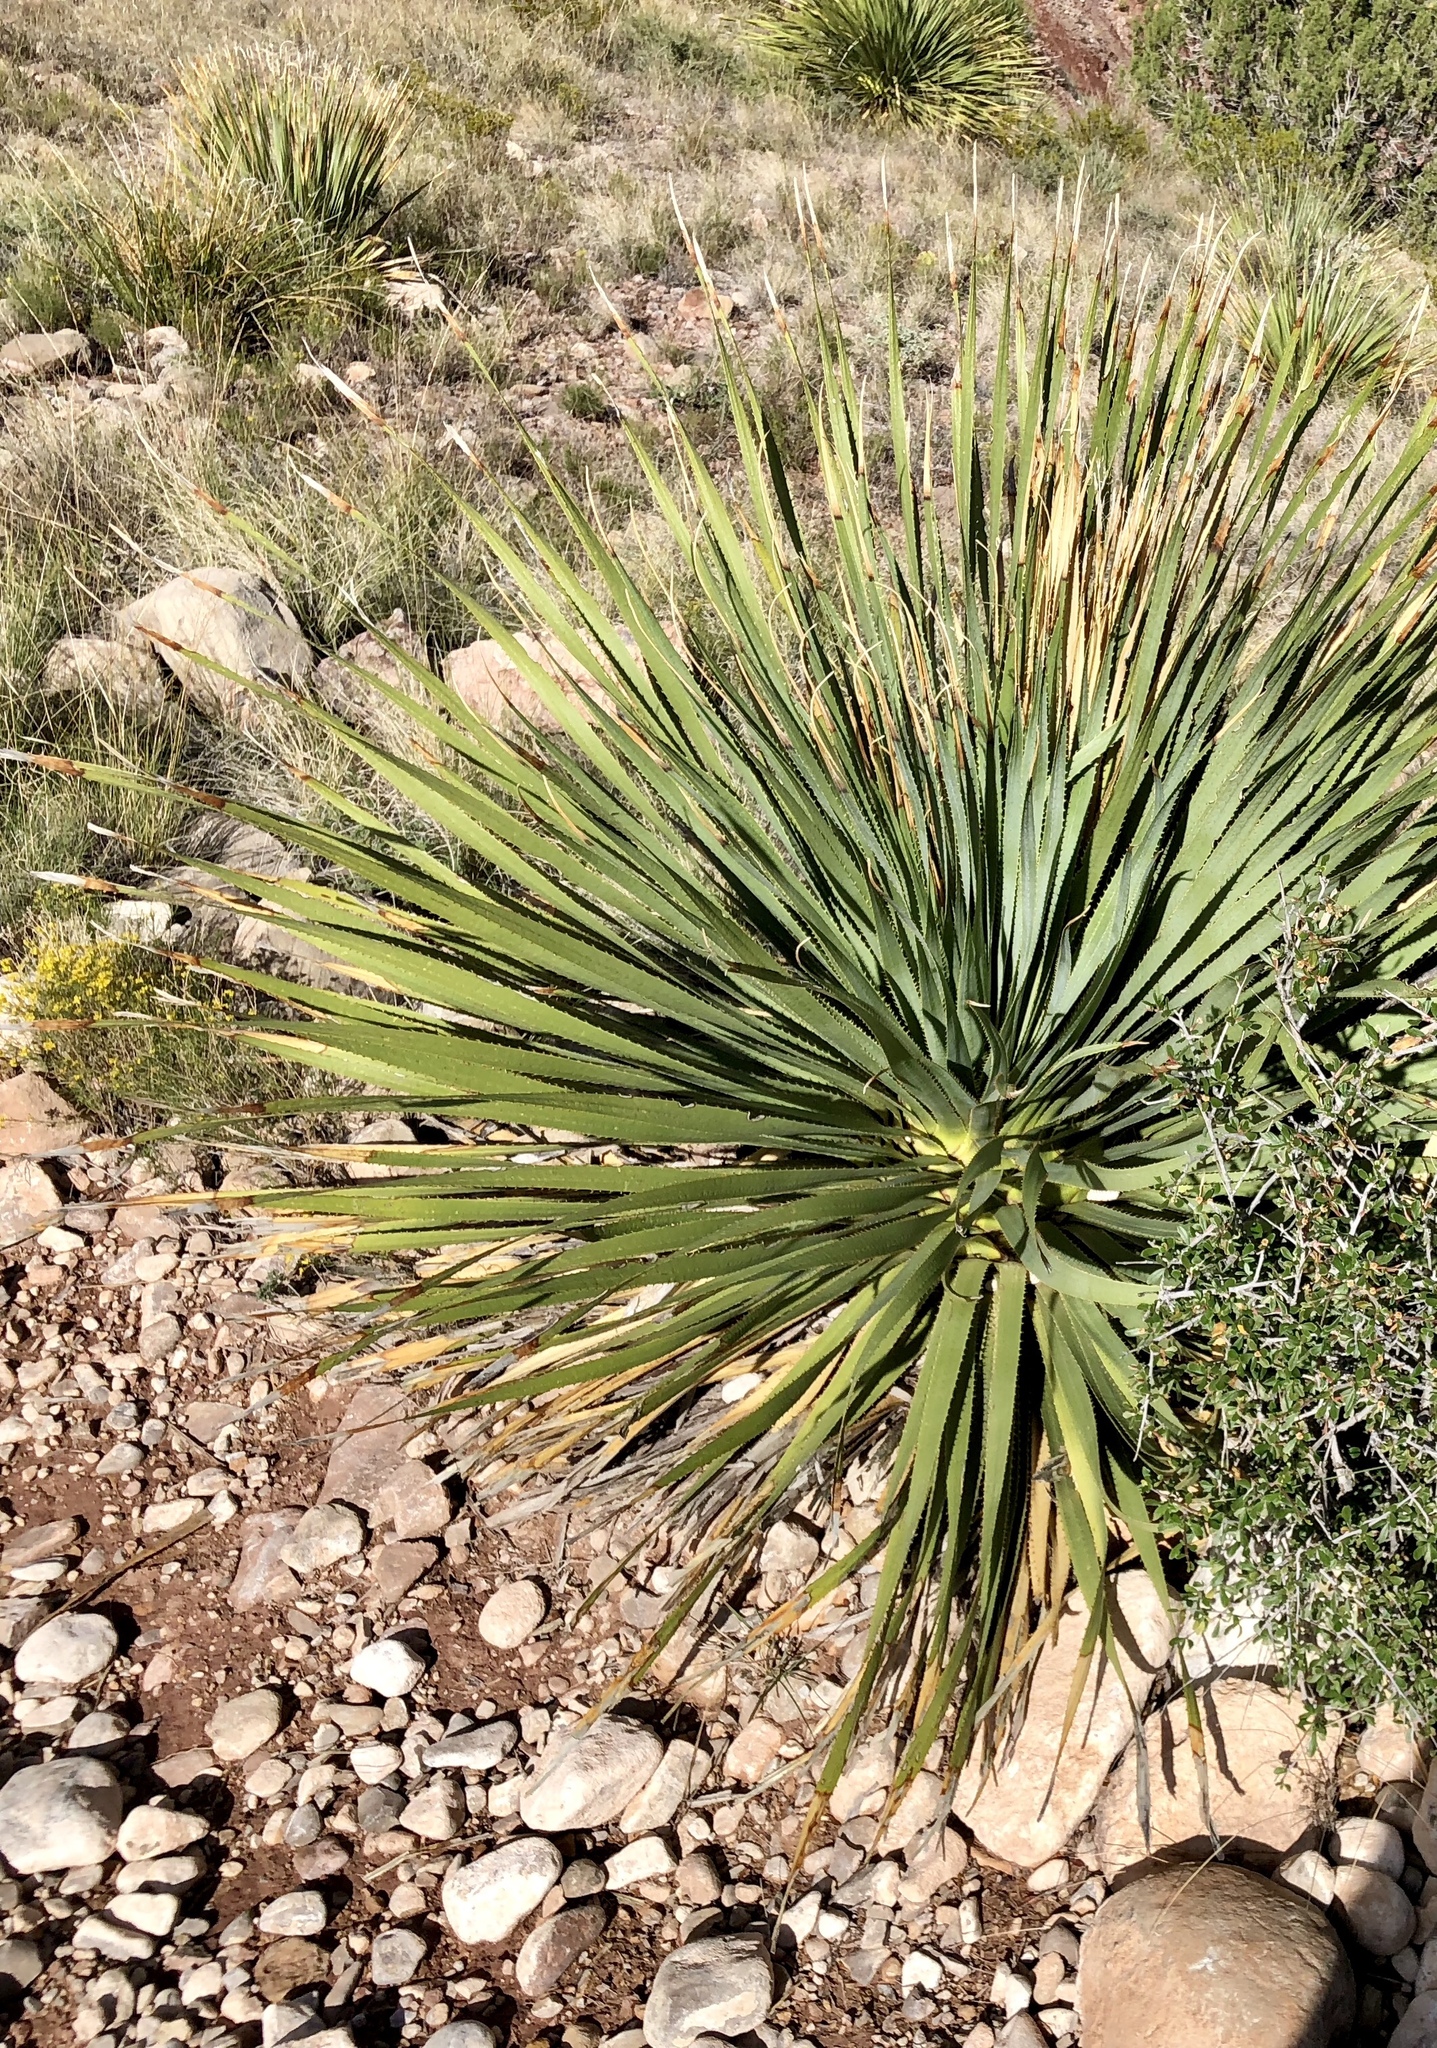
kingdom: Plantae
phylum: Tracheophyta
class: Liliopsida
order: Asparagales
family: Asparagaceae
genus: Dasylirion
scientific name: Dasylirion wheeleri
